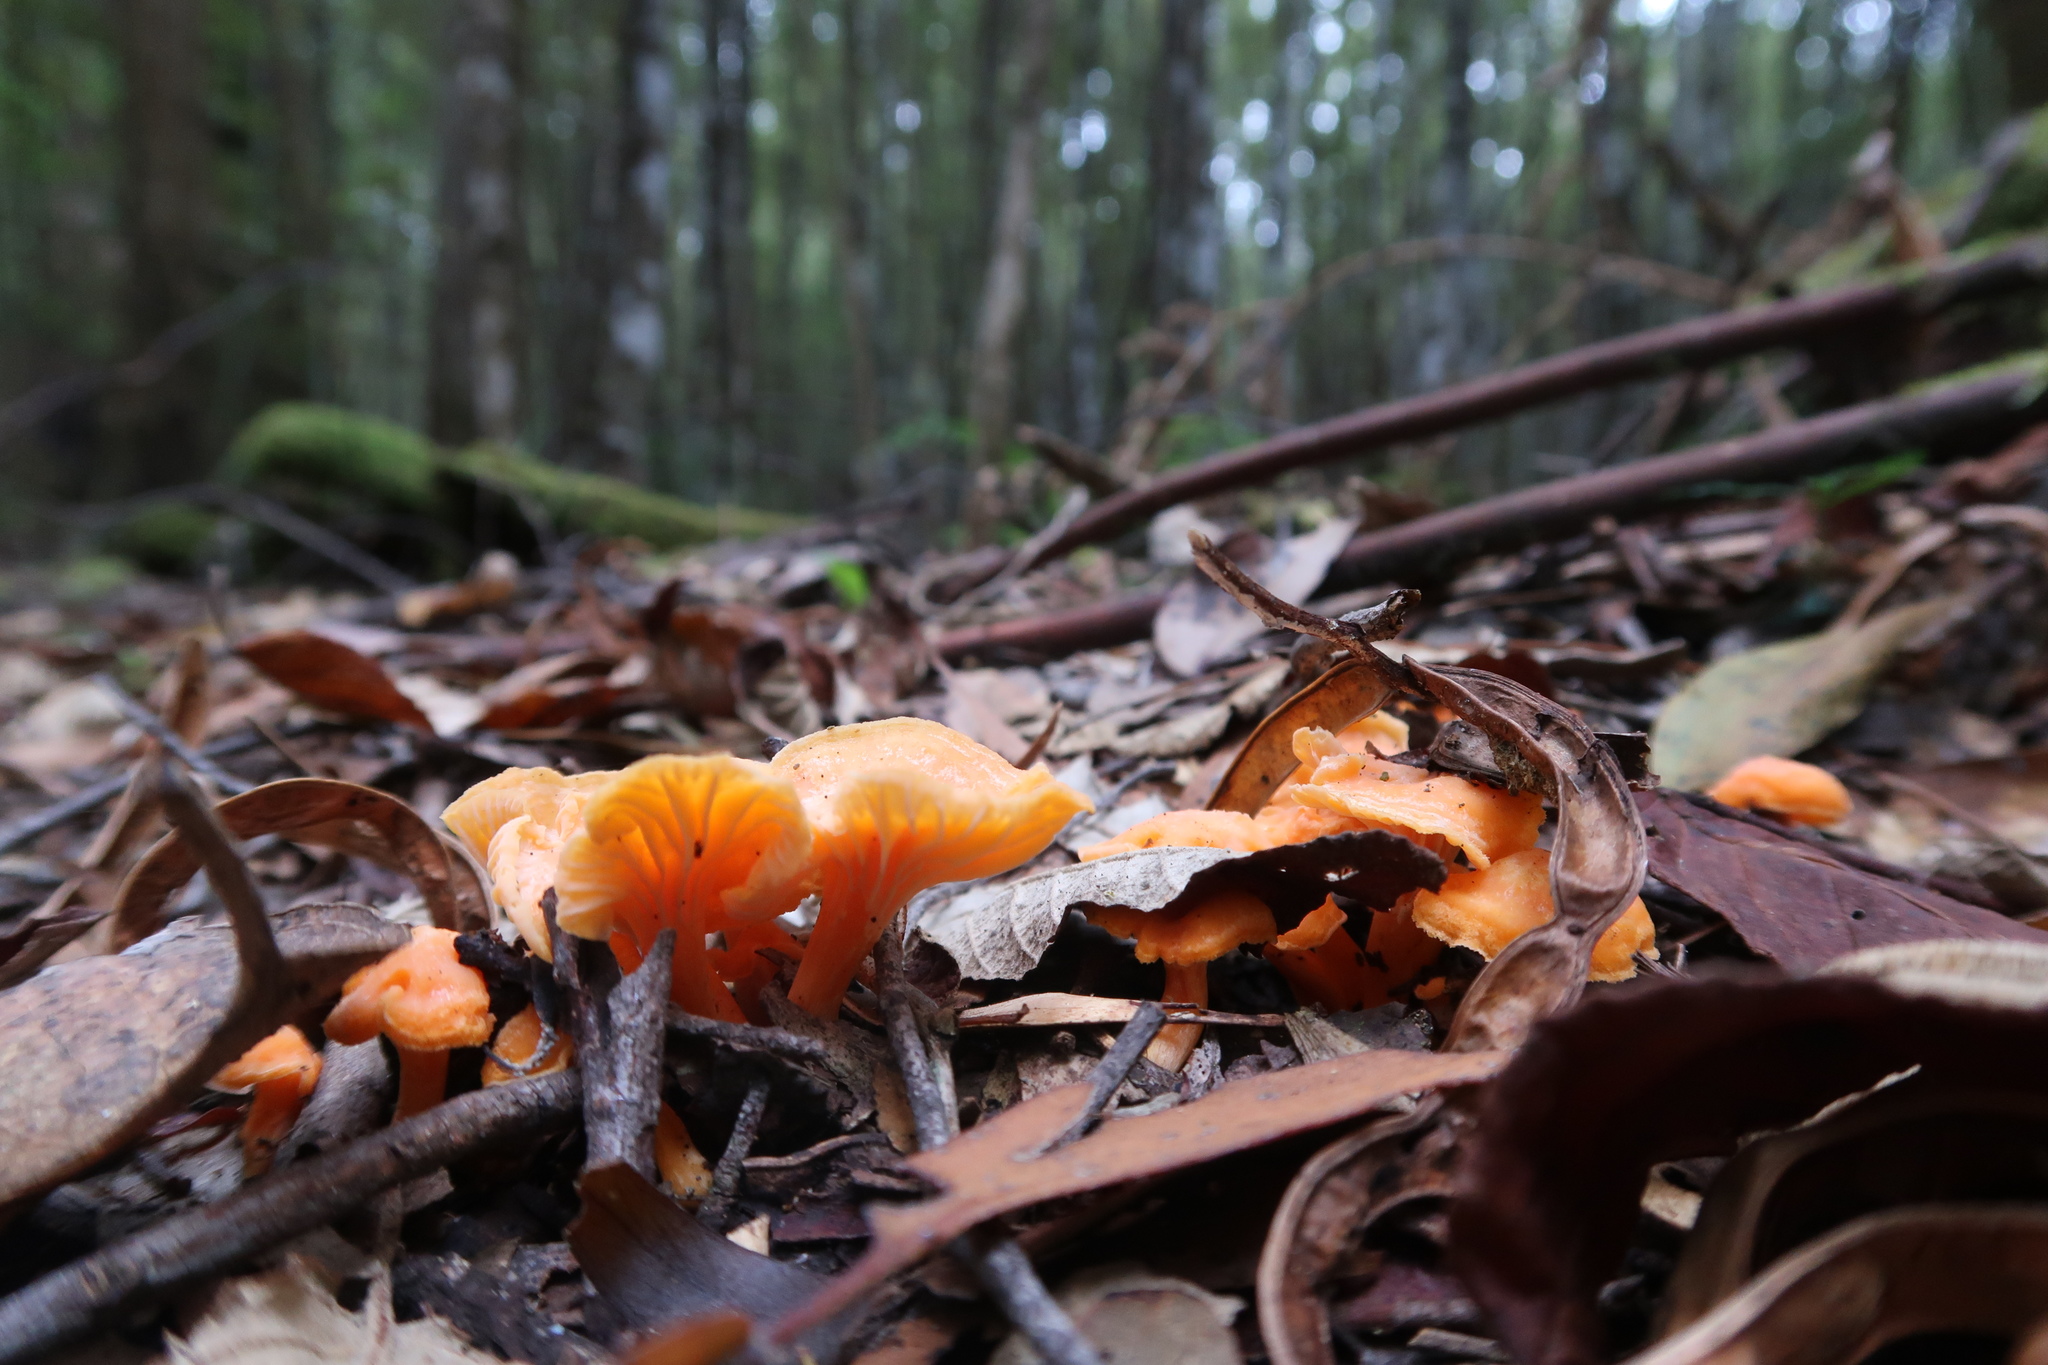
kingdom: Fungi
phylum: Basidiomycota
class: Agaricomycetes
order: Cantharellales
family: Hydnaceae
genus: Cantharellus
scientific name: Cantharellus
